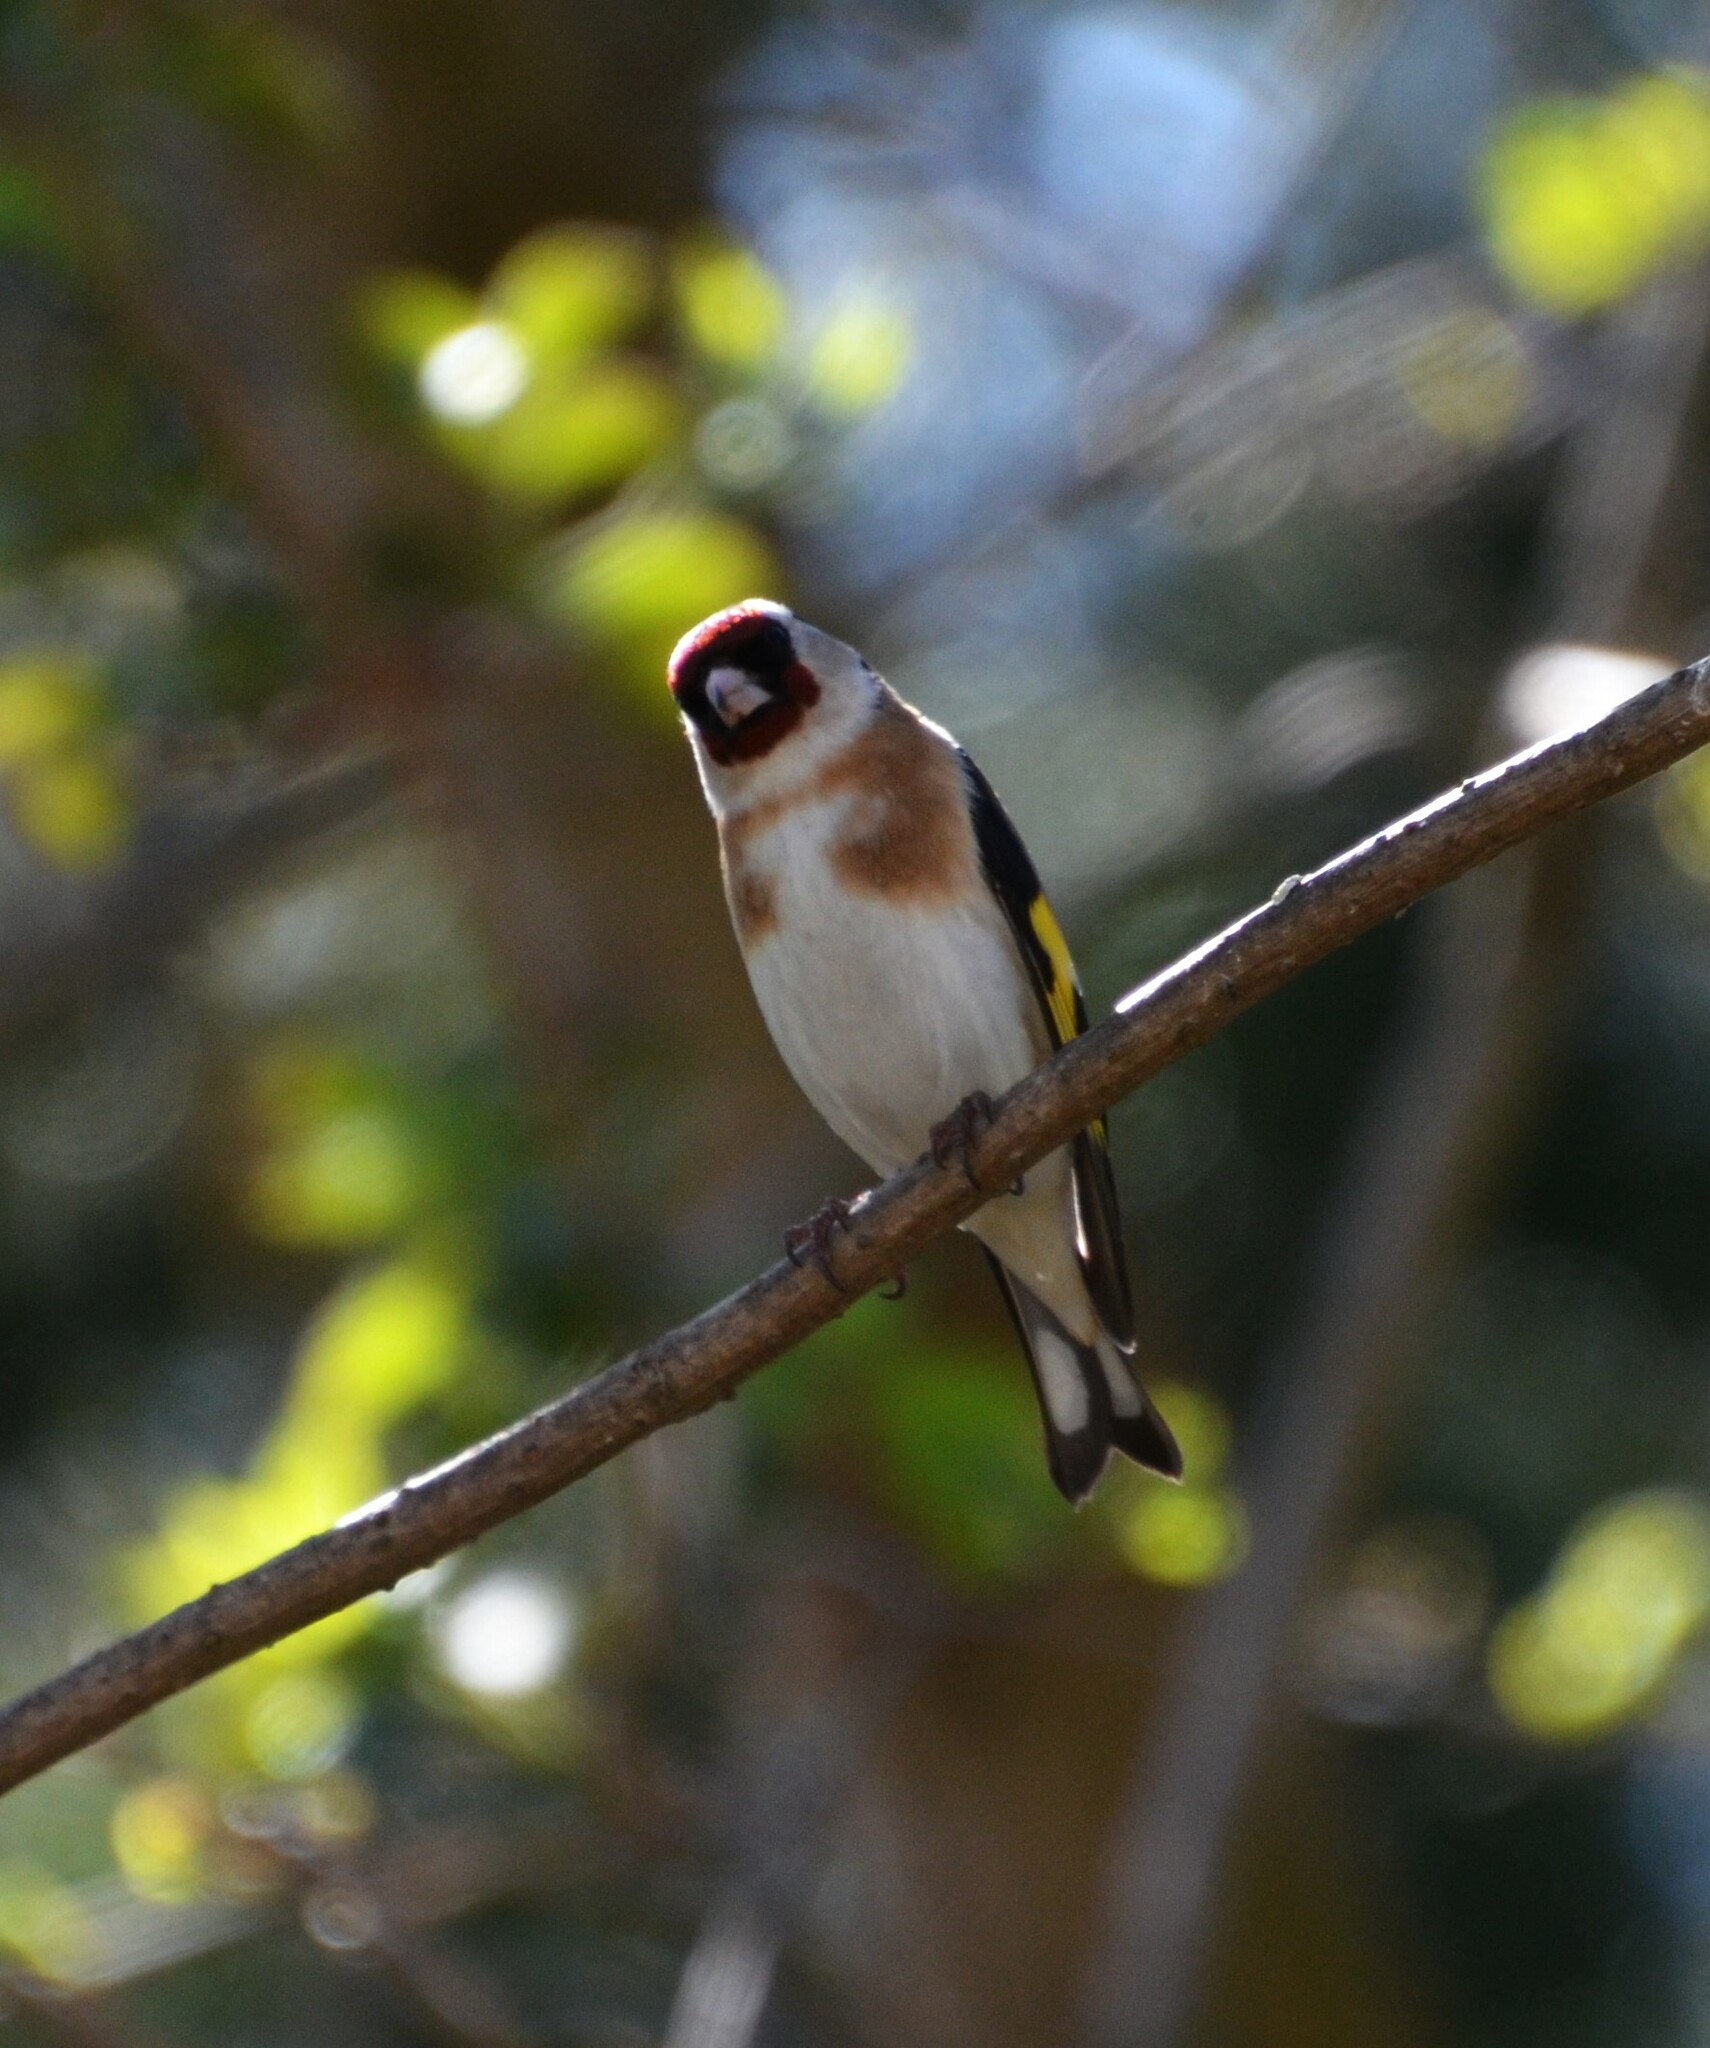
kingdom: Animalia
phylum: Chordata
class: Aves
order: Passeriformes
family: Fringillidae
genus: Carduelis
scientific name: Carduelis carduelis
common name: European goldfinch
